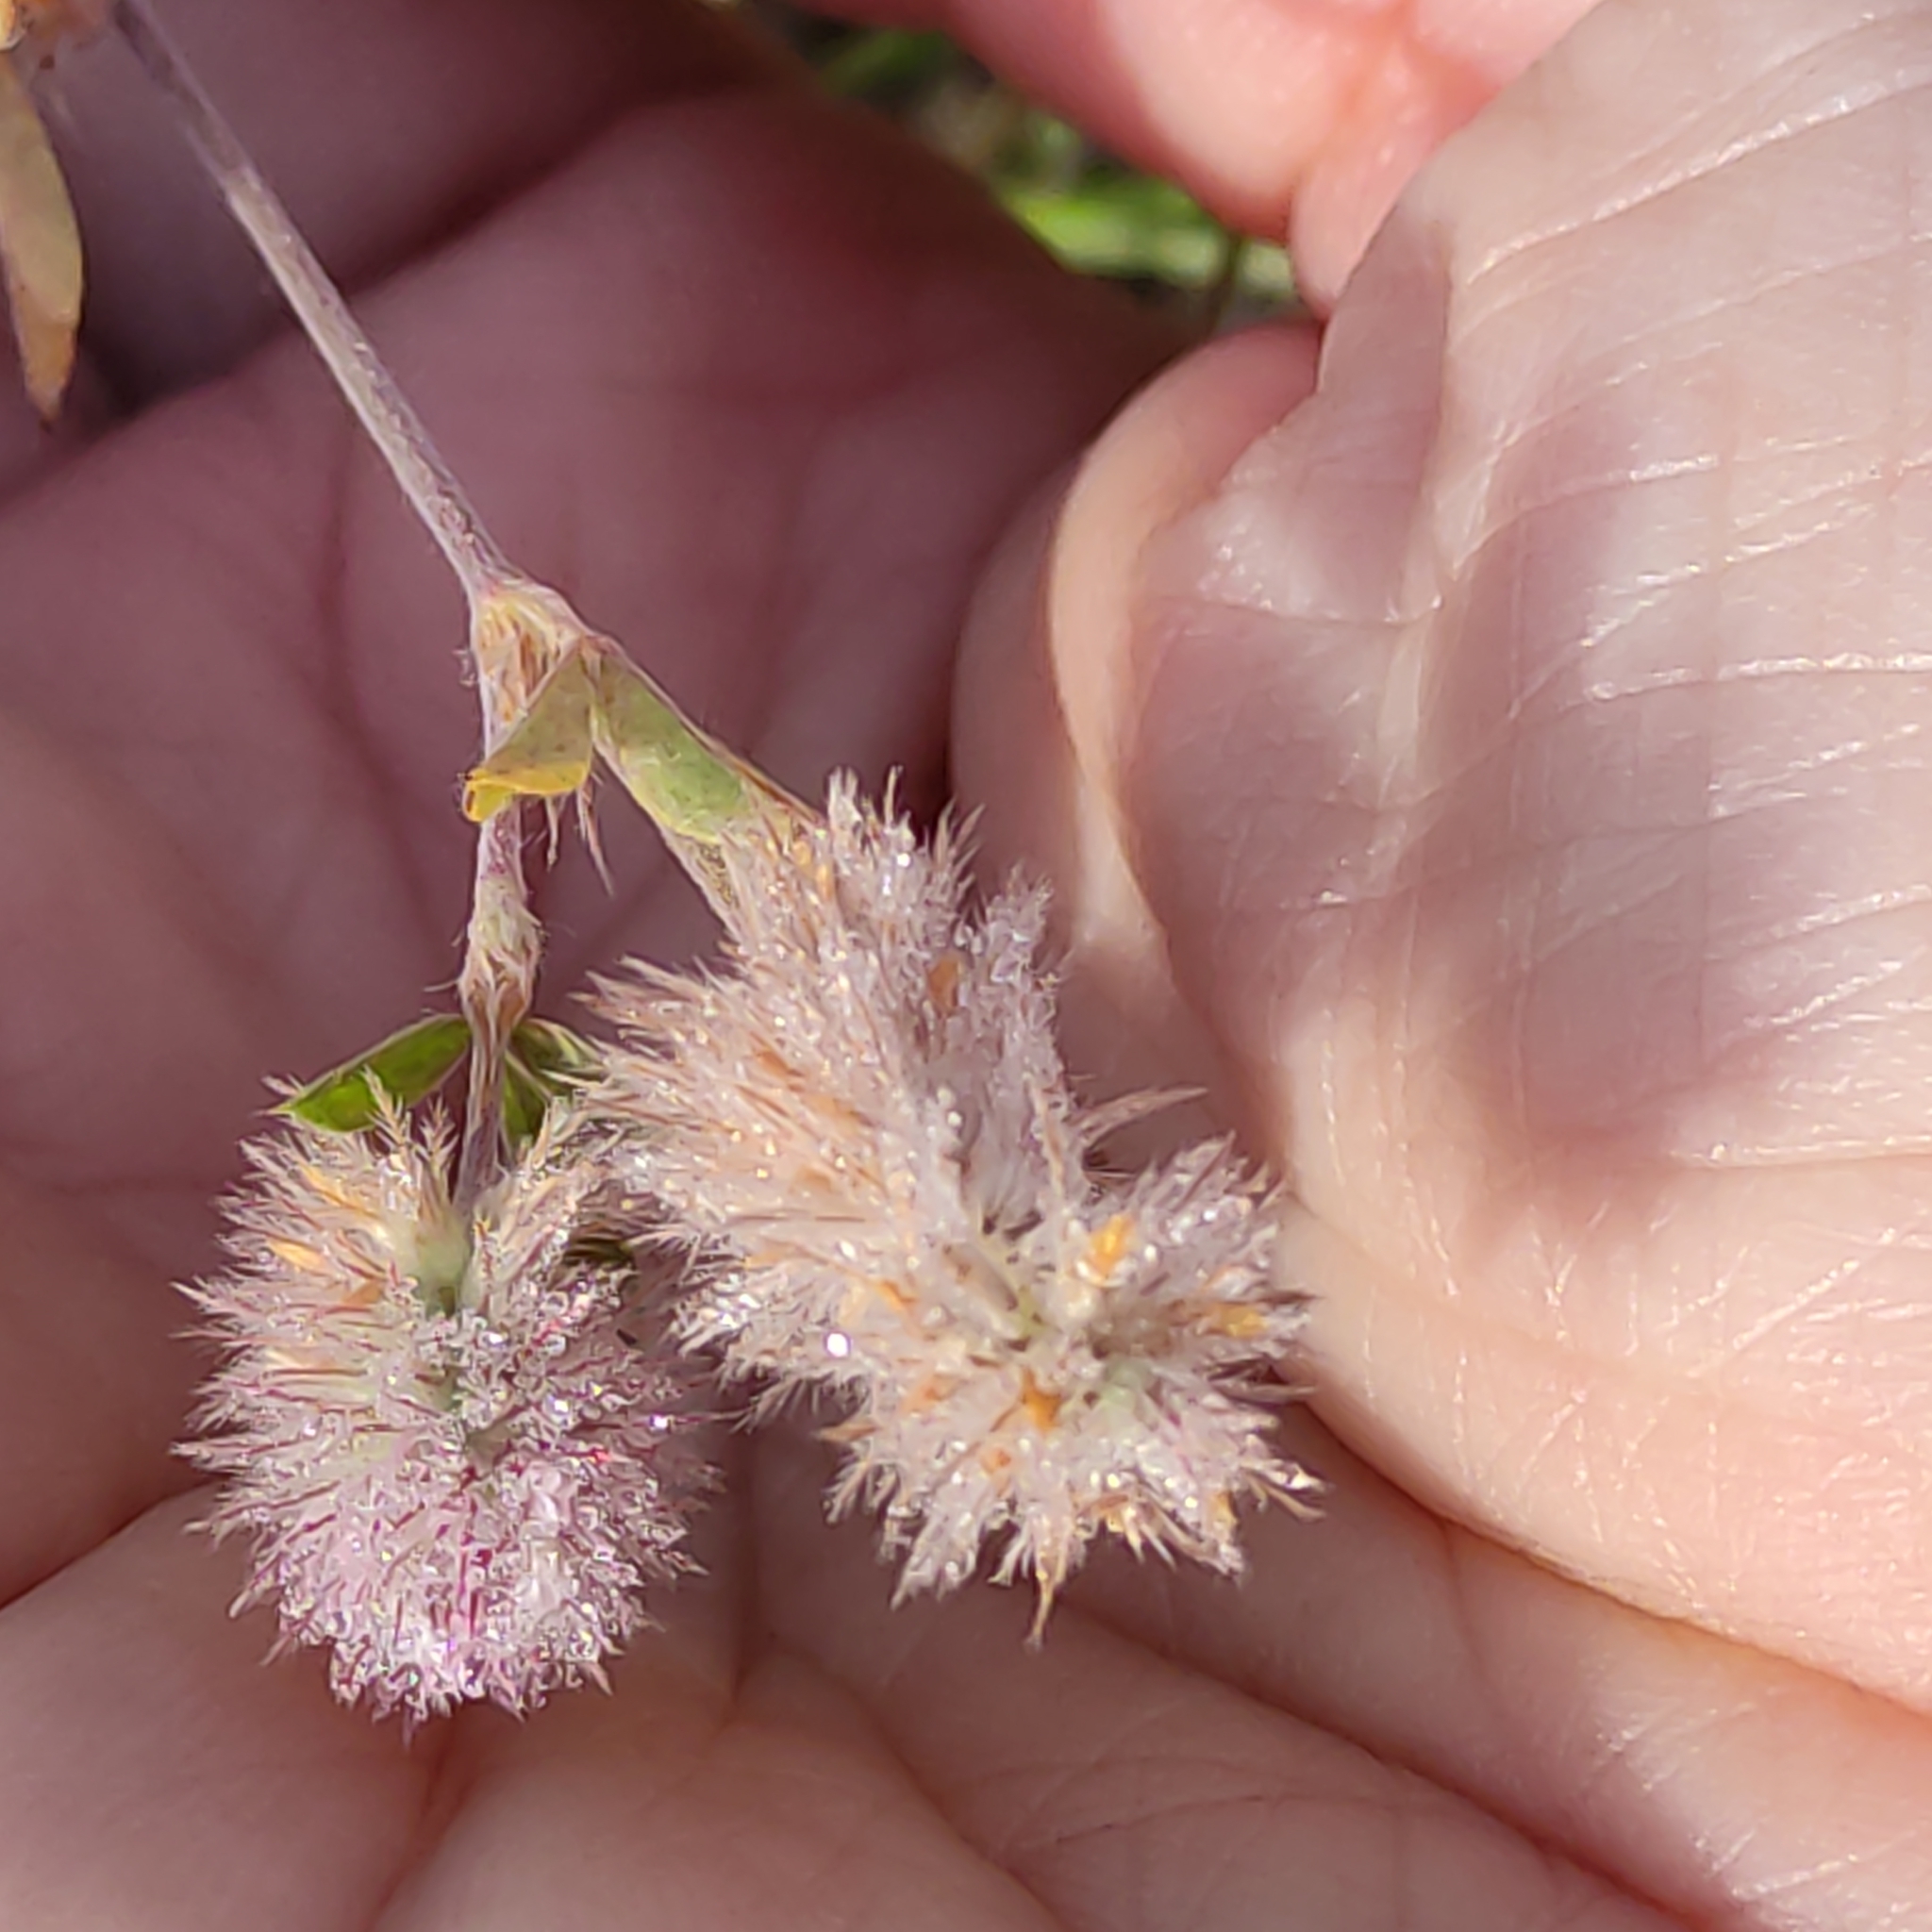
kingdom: Plantae
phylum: Tracheophyta
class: Magnoliopsida
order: Fabales
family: Fabaceae
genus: Trifolium
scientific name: Trifolium arvense
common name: Hare's-foot clover
